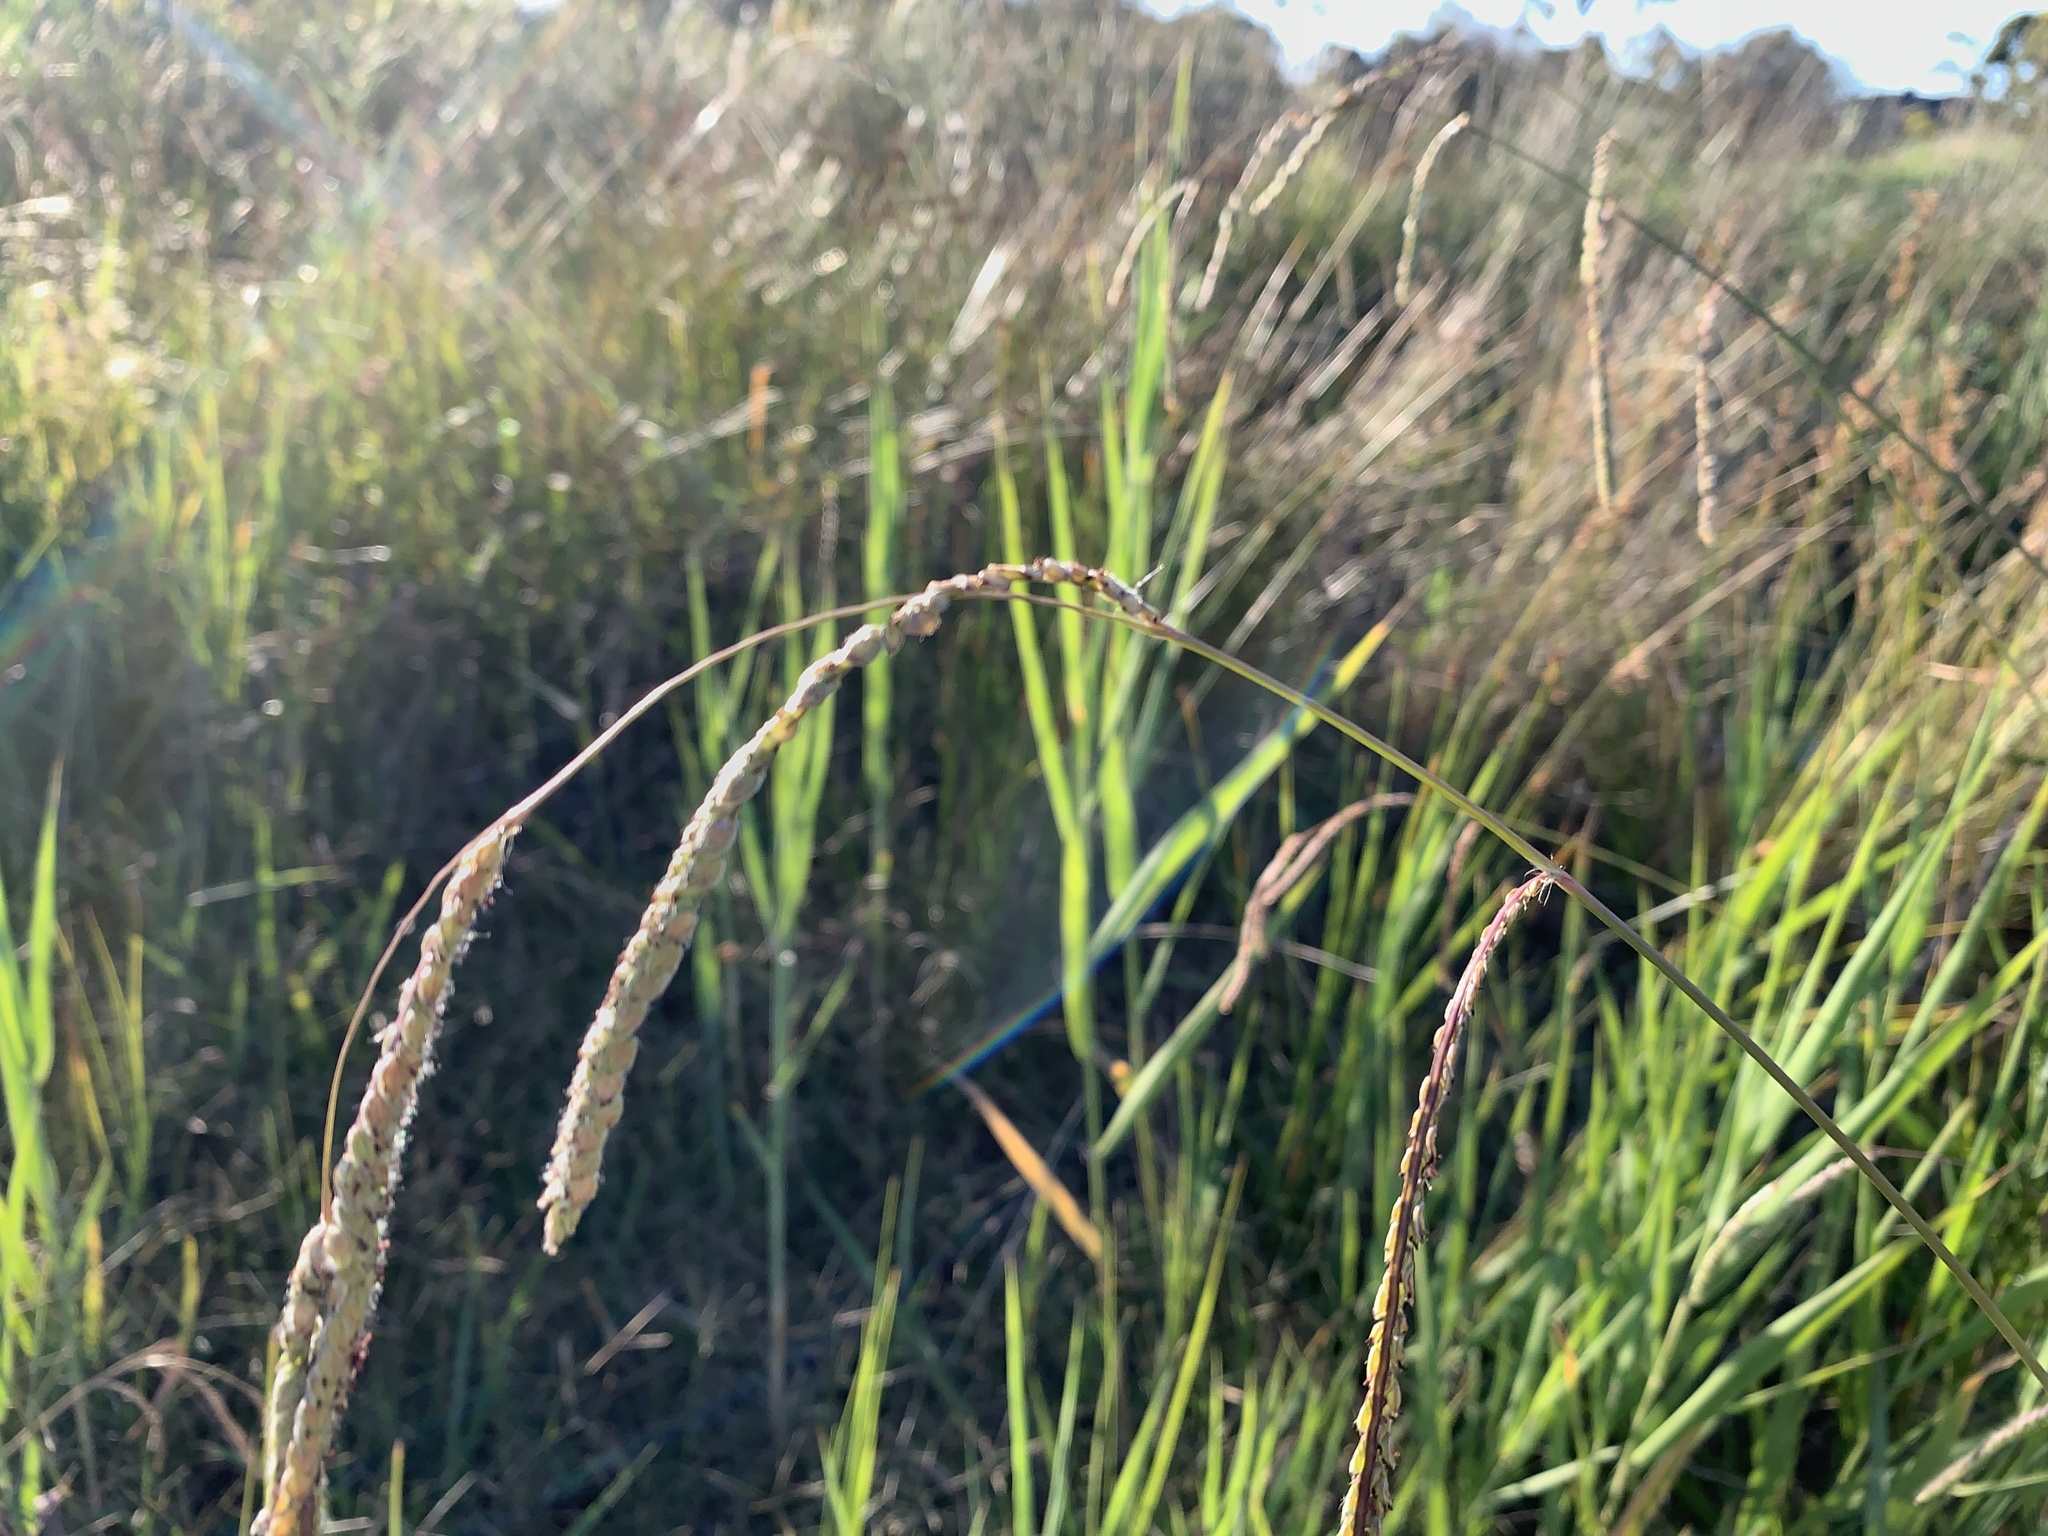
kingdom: Plantae
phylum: Tracheophyta
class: Liliopsida
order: Poales
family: Poaceae
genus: Paspalum
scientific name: Paspalum dilatatum
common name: Dallisgrass
